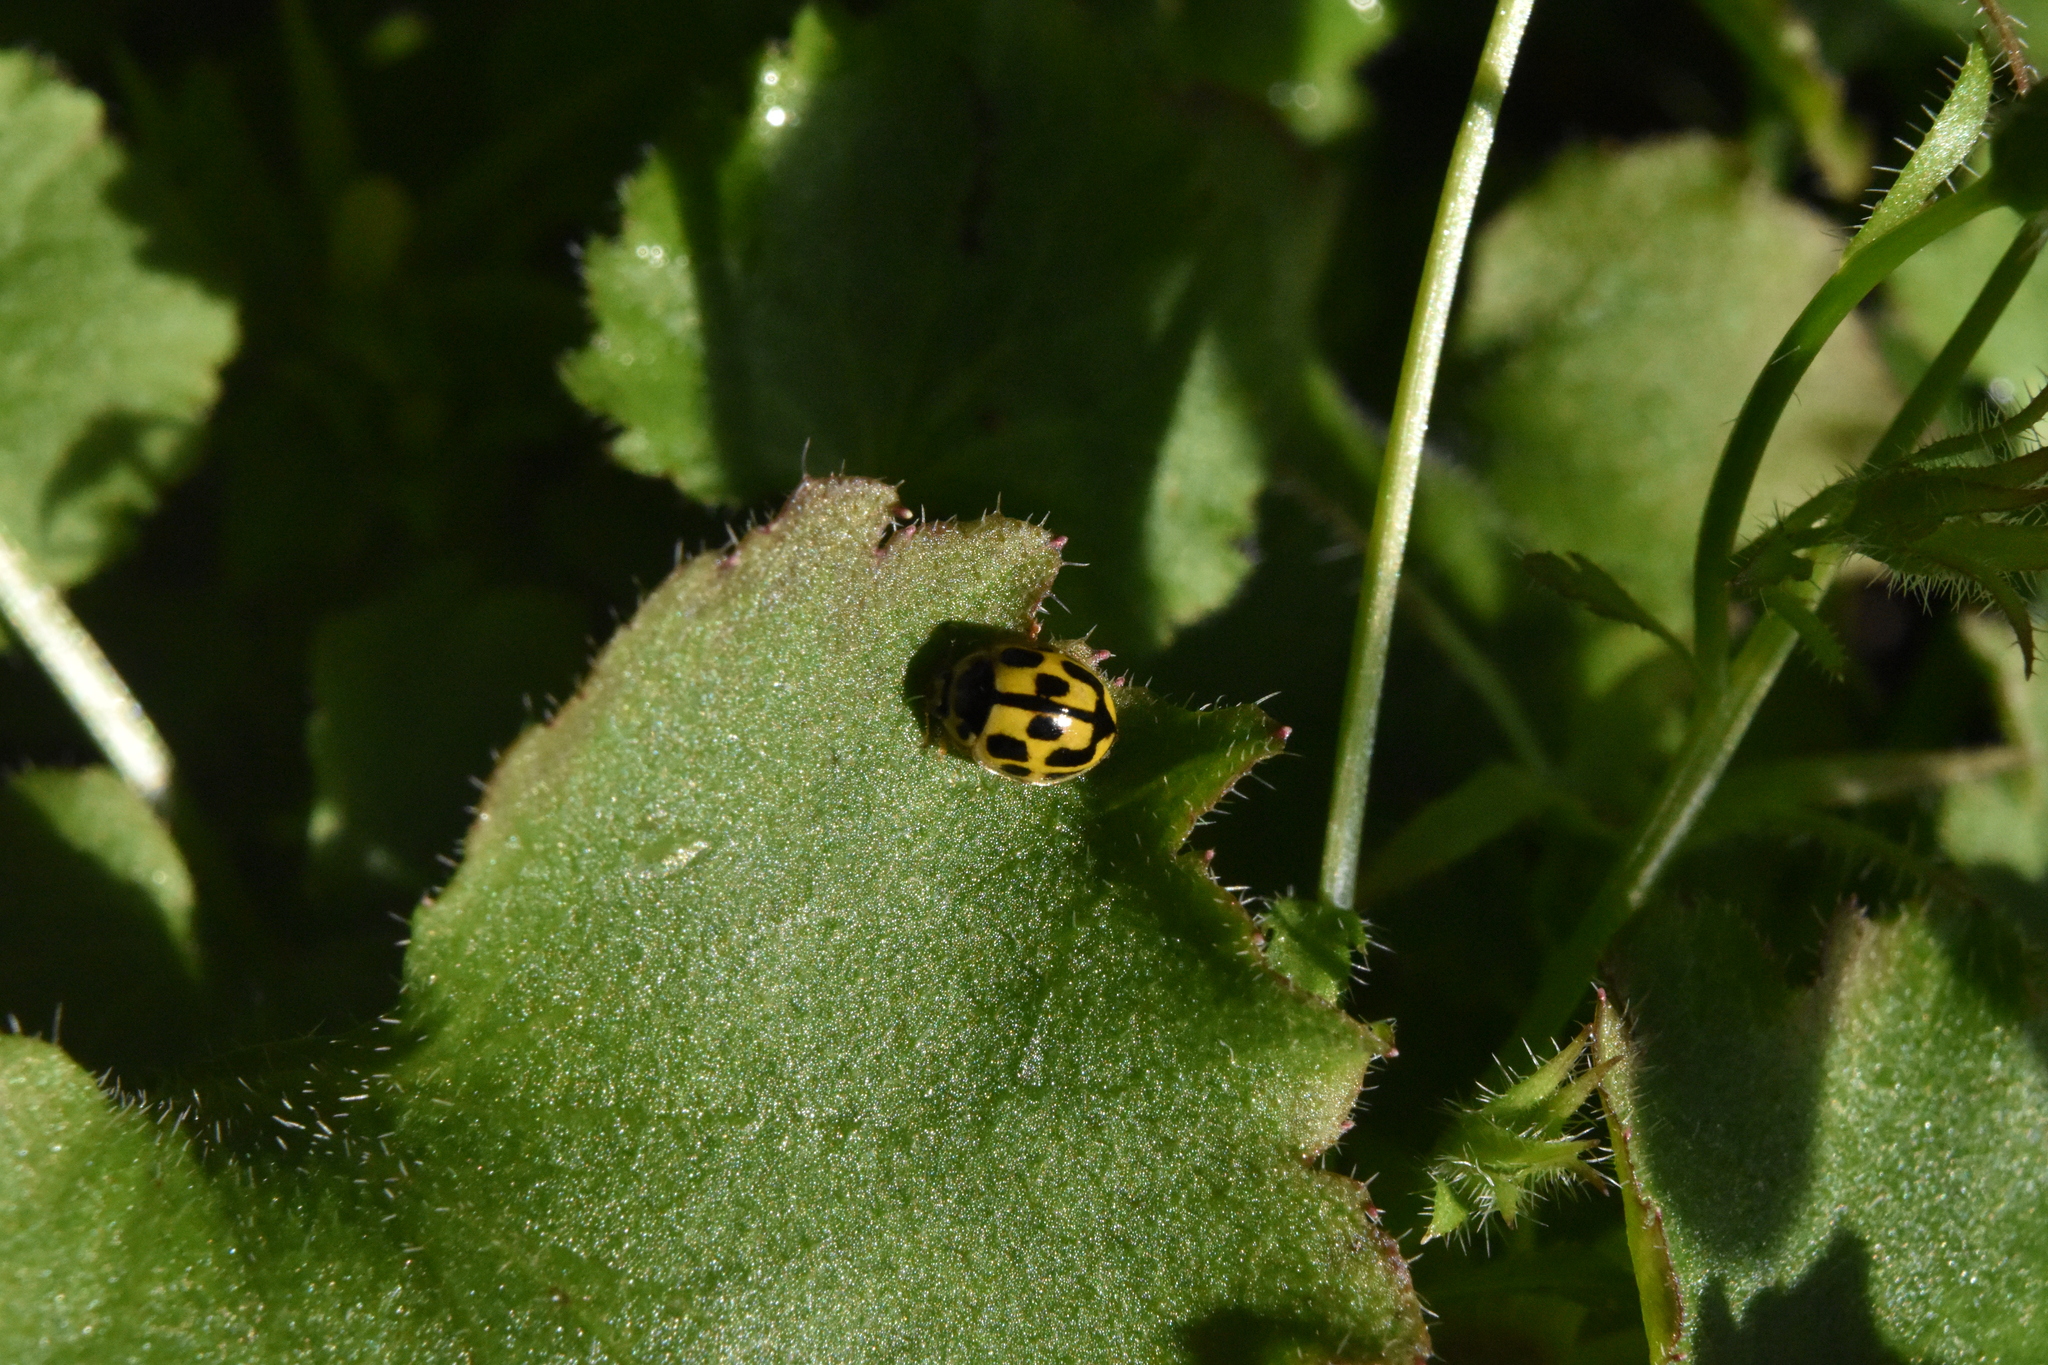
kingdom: Animalia
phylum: Arthropoda
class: Insecta
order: Coleoptera
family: Coccinellidae
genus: Propylaea
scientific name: Propylaea quatuordecimpunctata
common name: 14-spotted ladybird beetle
